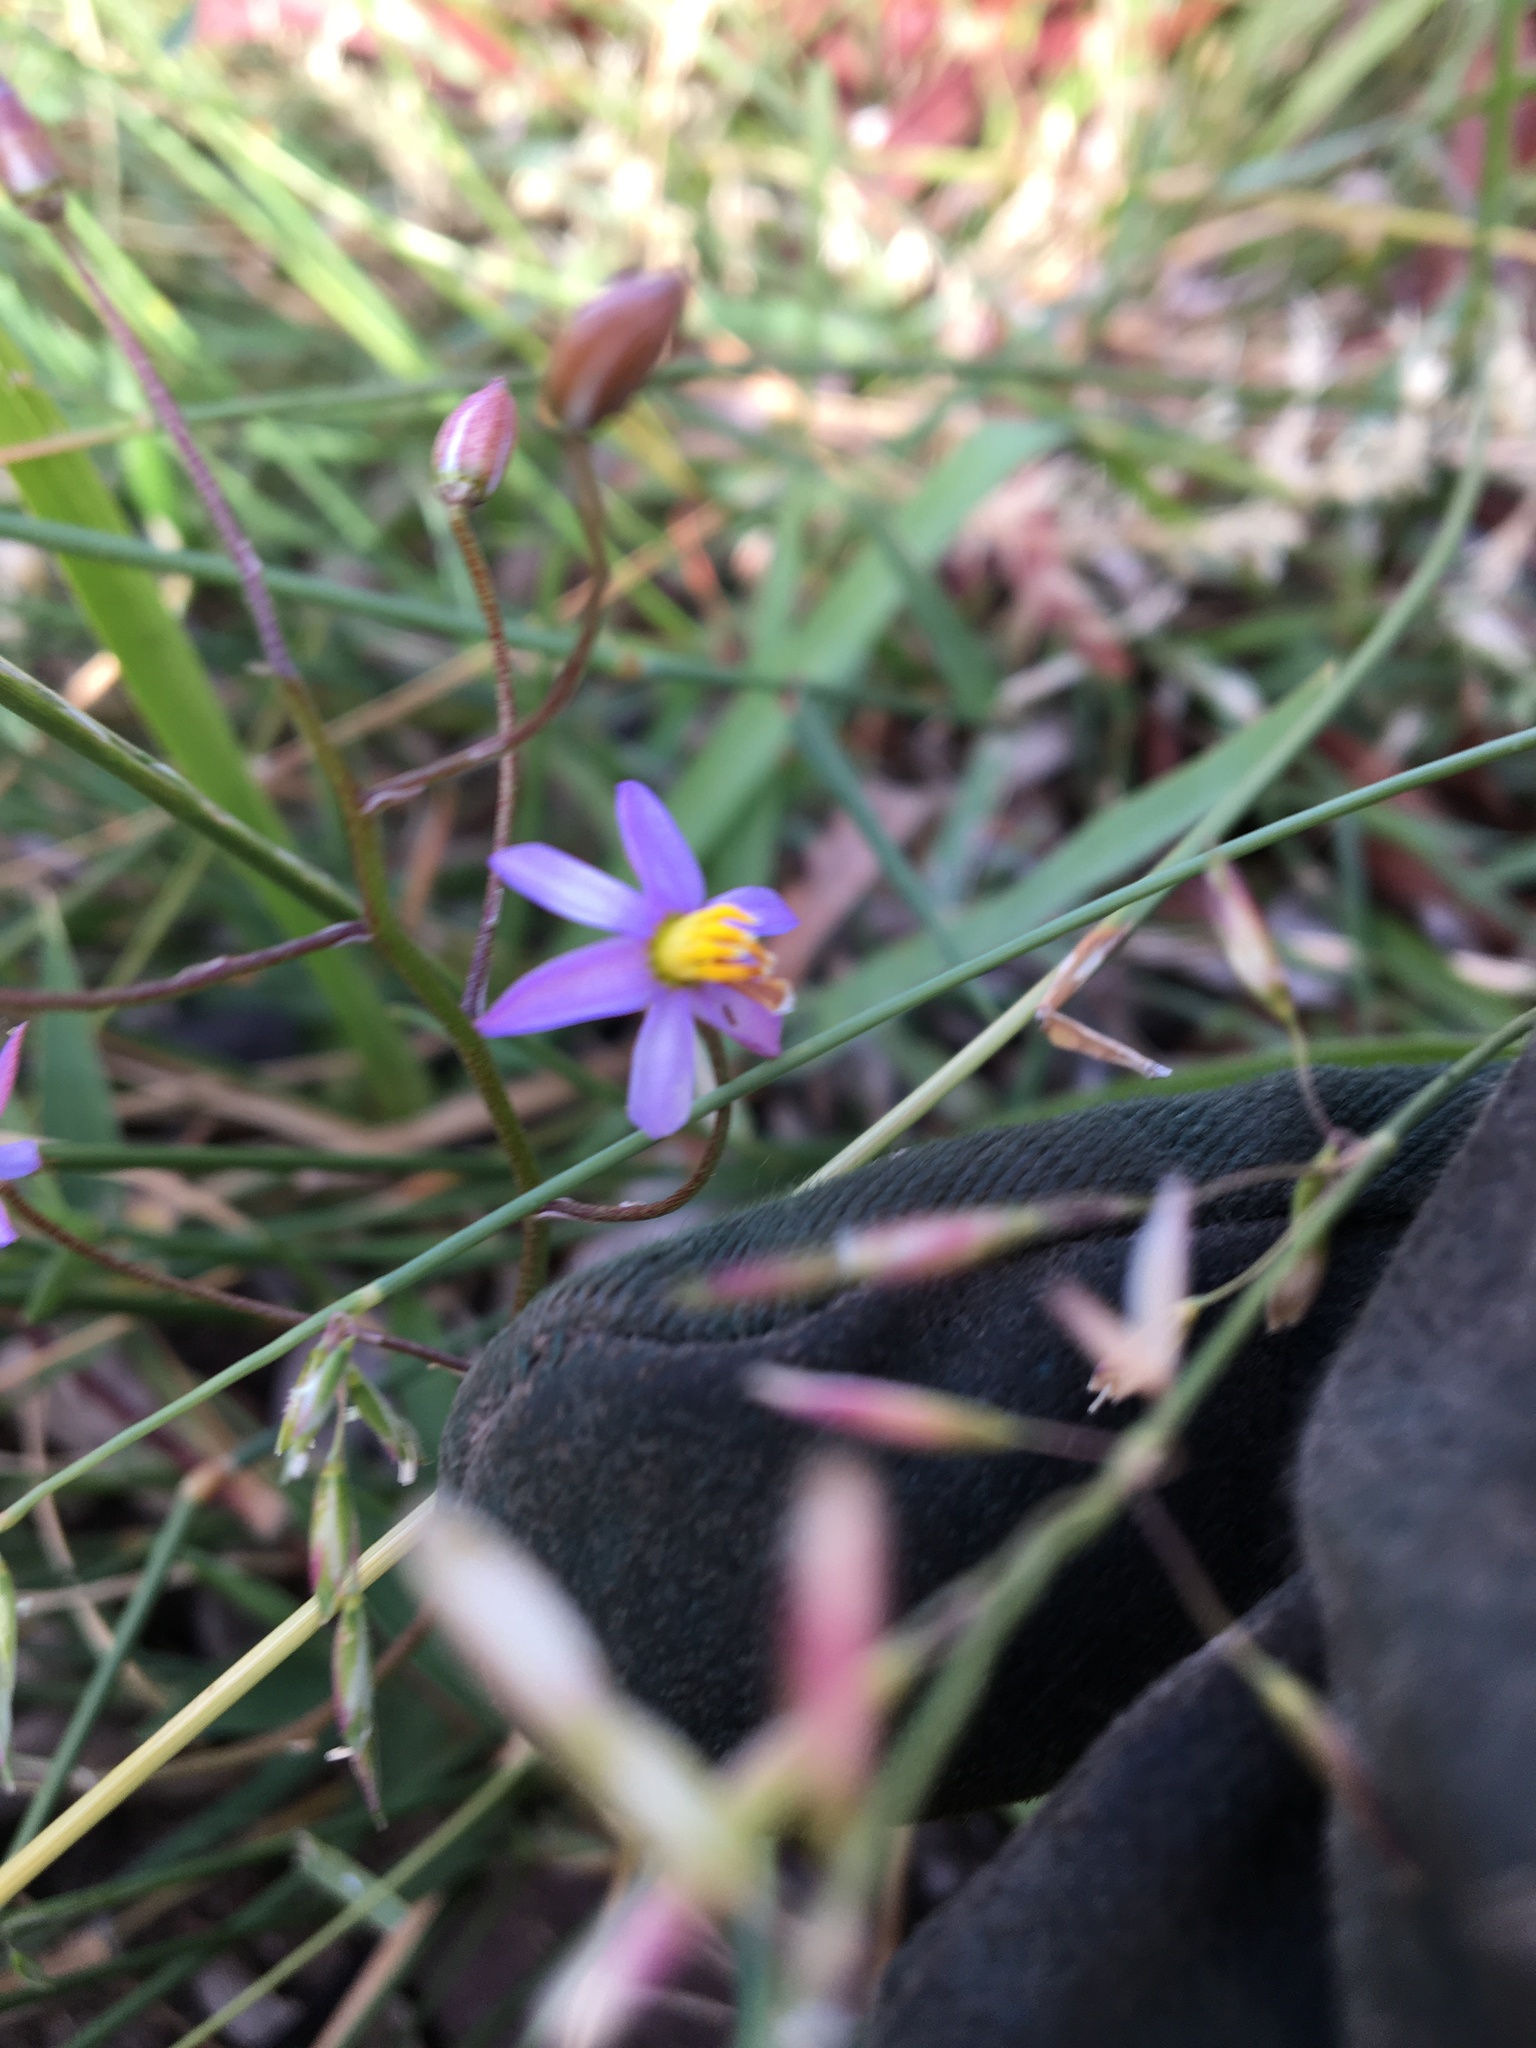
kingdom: Plantae
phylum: Tracheophyta
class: Liliopsida
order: Asparagales
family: Tecophilaeaceae
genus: Cyanella
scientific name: Cyanella hyacinthoides
